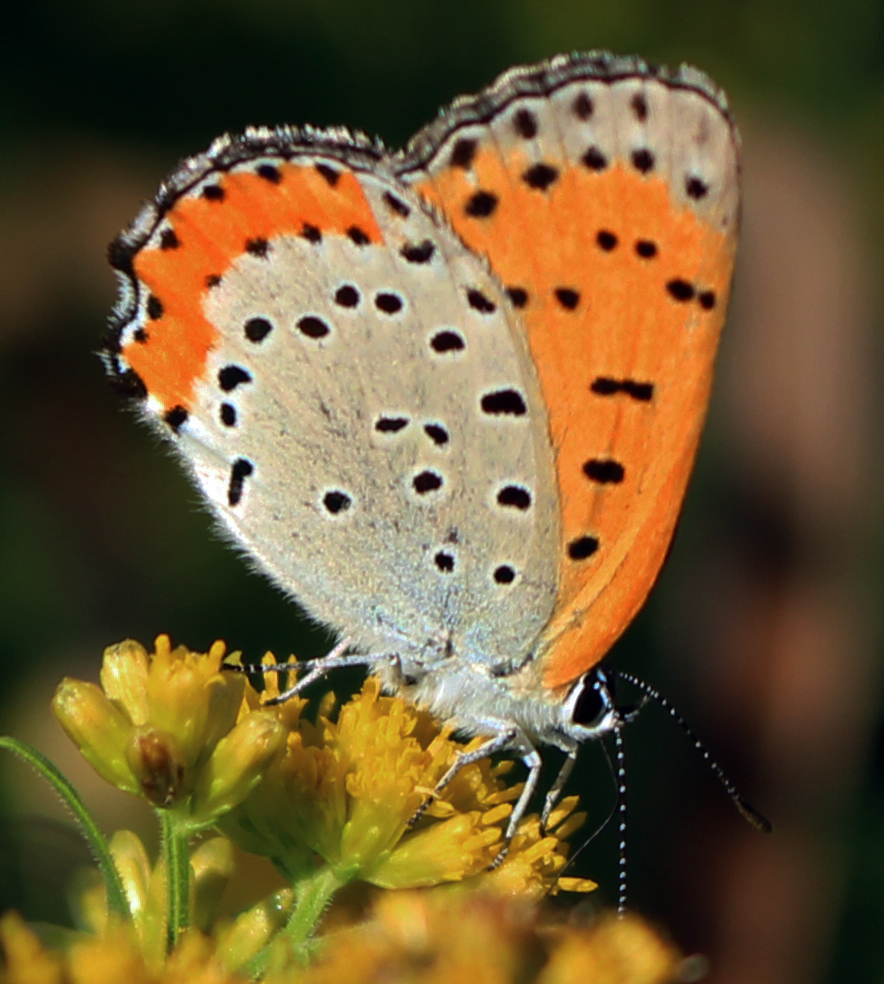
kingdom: Animalia
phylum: Arthropoda
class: Insecta
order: Lepidoptera
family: Lycaenidae
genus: Tharsalea
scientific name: Tharsalea hyllus
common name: Bronze copper
